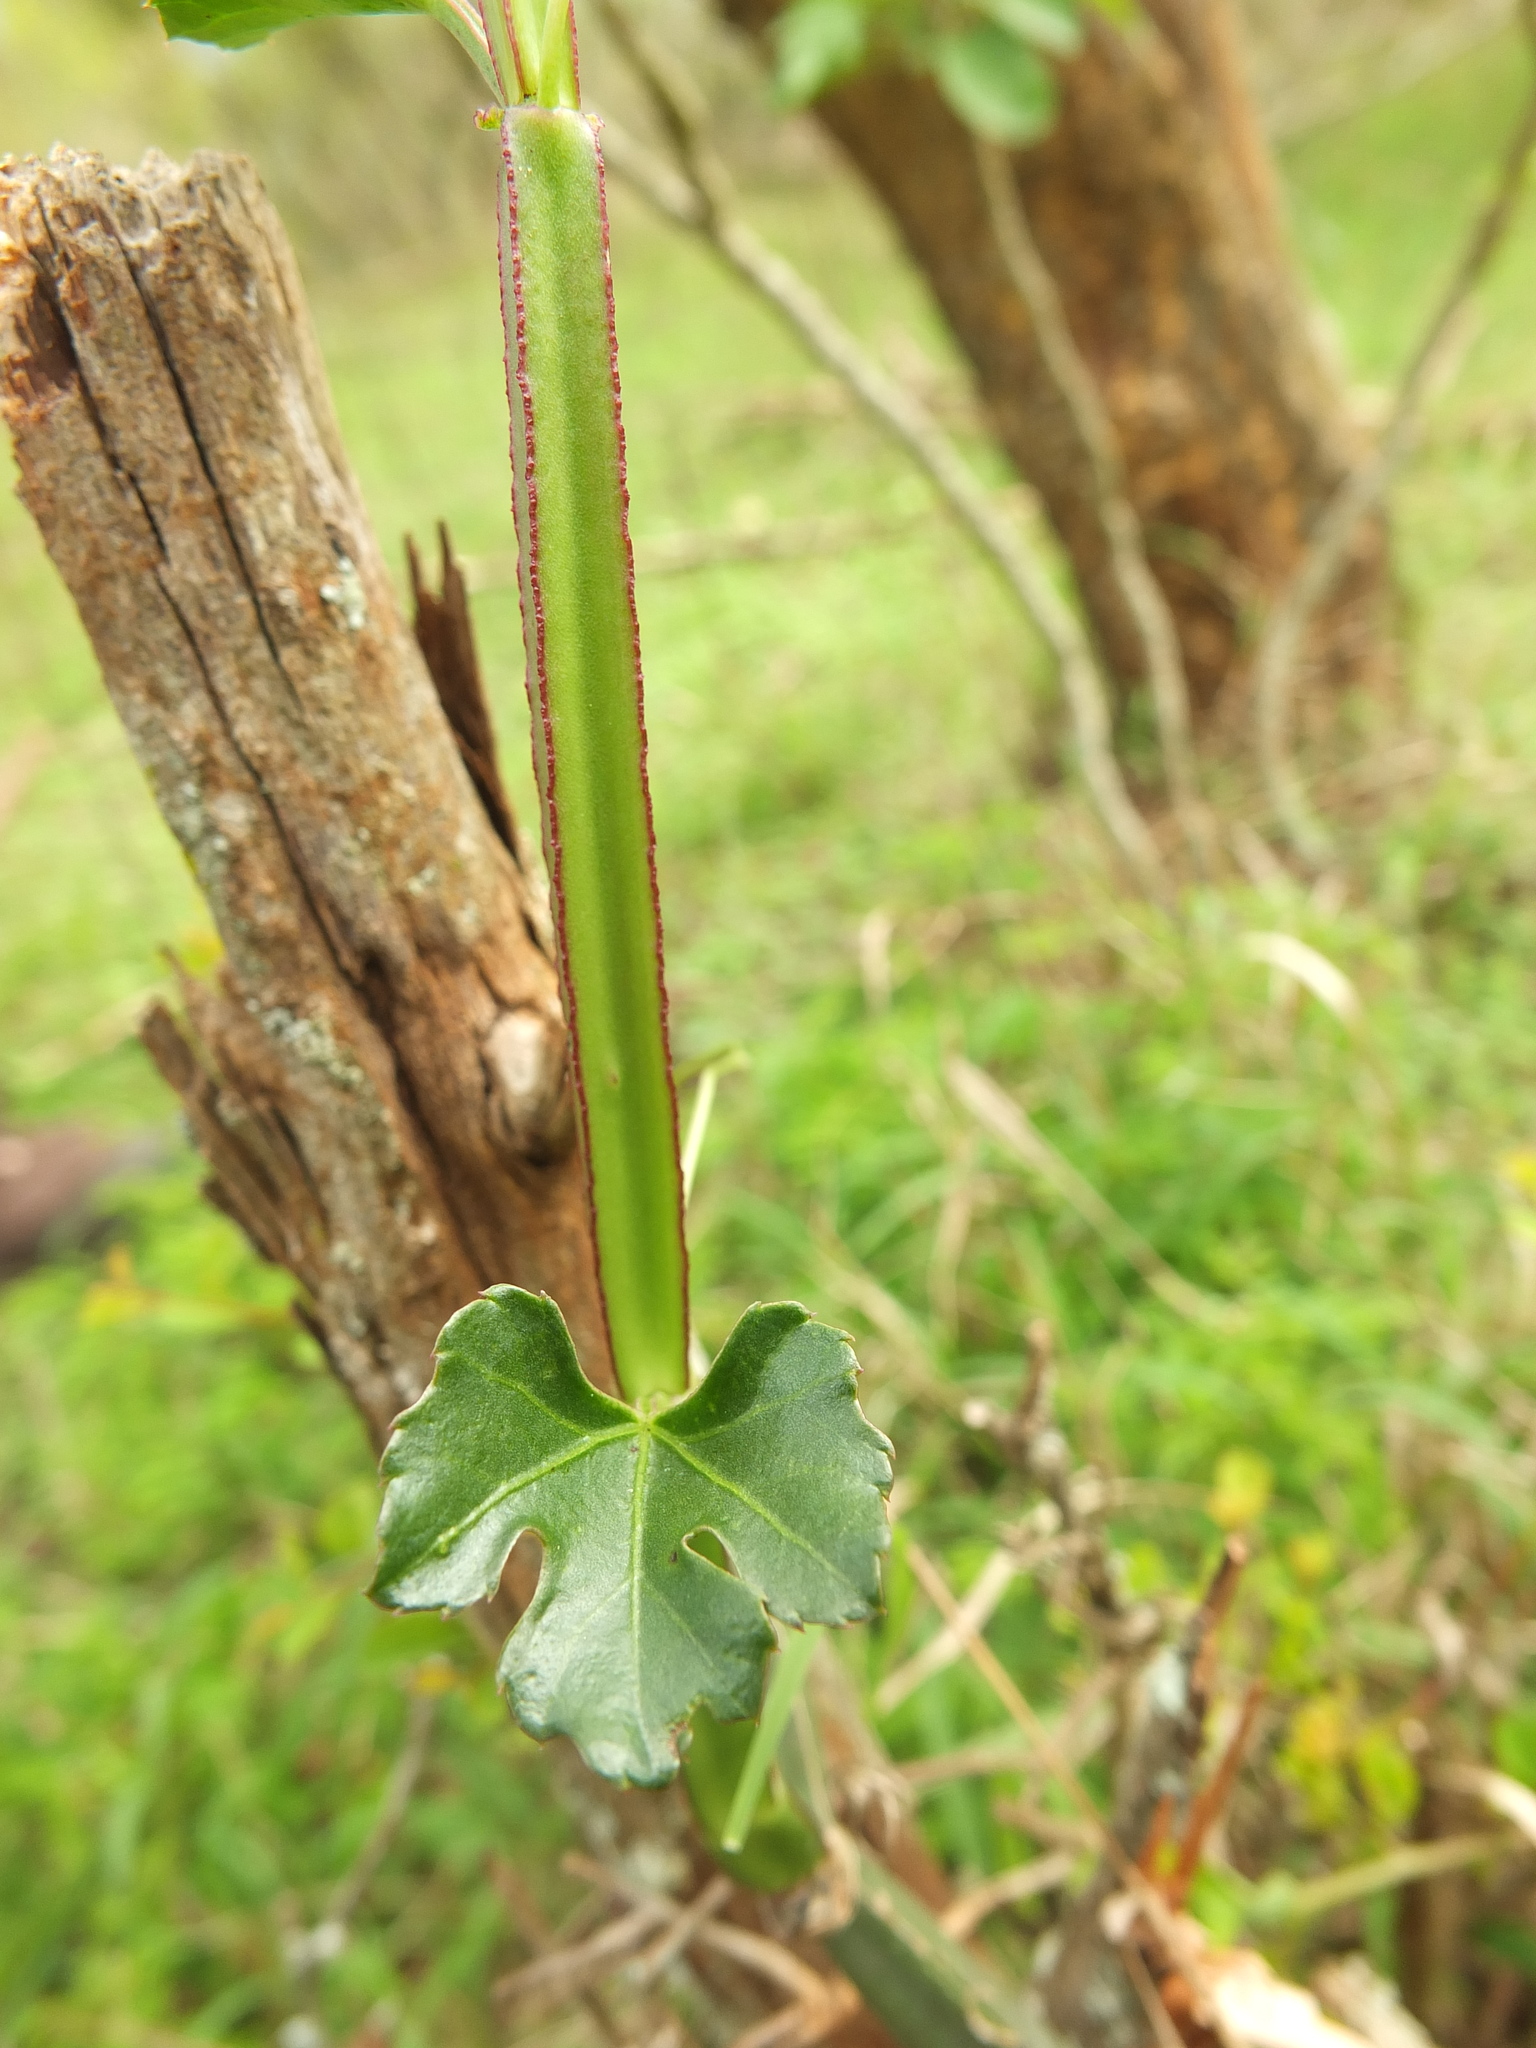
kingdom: Plantae
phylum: Tracheophyta
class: Magnoliopsida
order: Vitales
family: Vitaceae
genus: Cissus
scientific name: Cissus quadrangularis
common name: Veldt-grape
